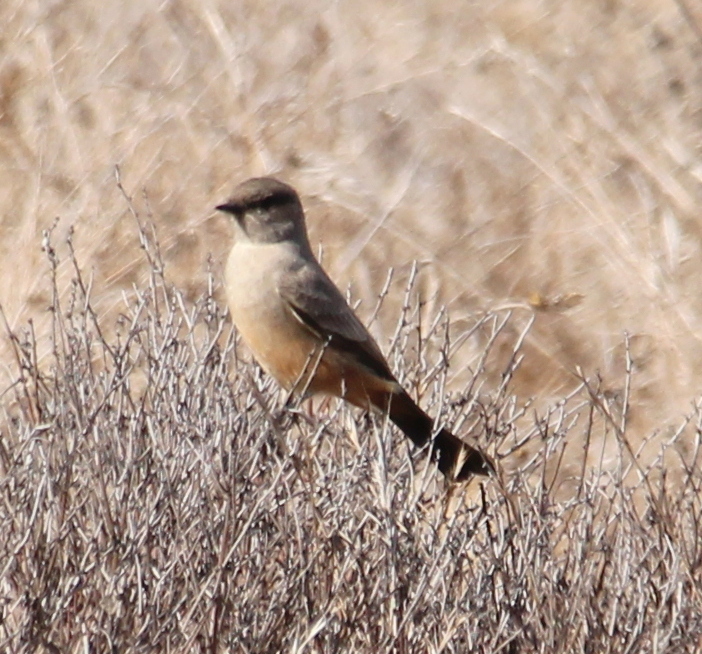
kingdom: Animalia
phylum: Chordata
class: Aves
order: Passeriformes
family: Tyrannidae
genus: Sayornis
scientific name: Sayornis saya
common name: Say's phoebe
